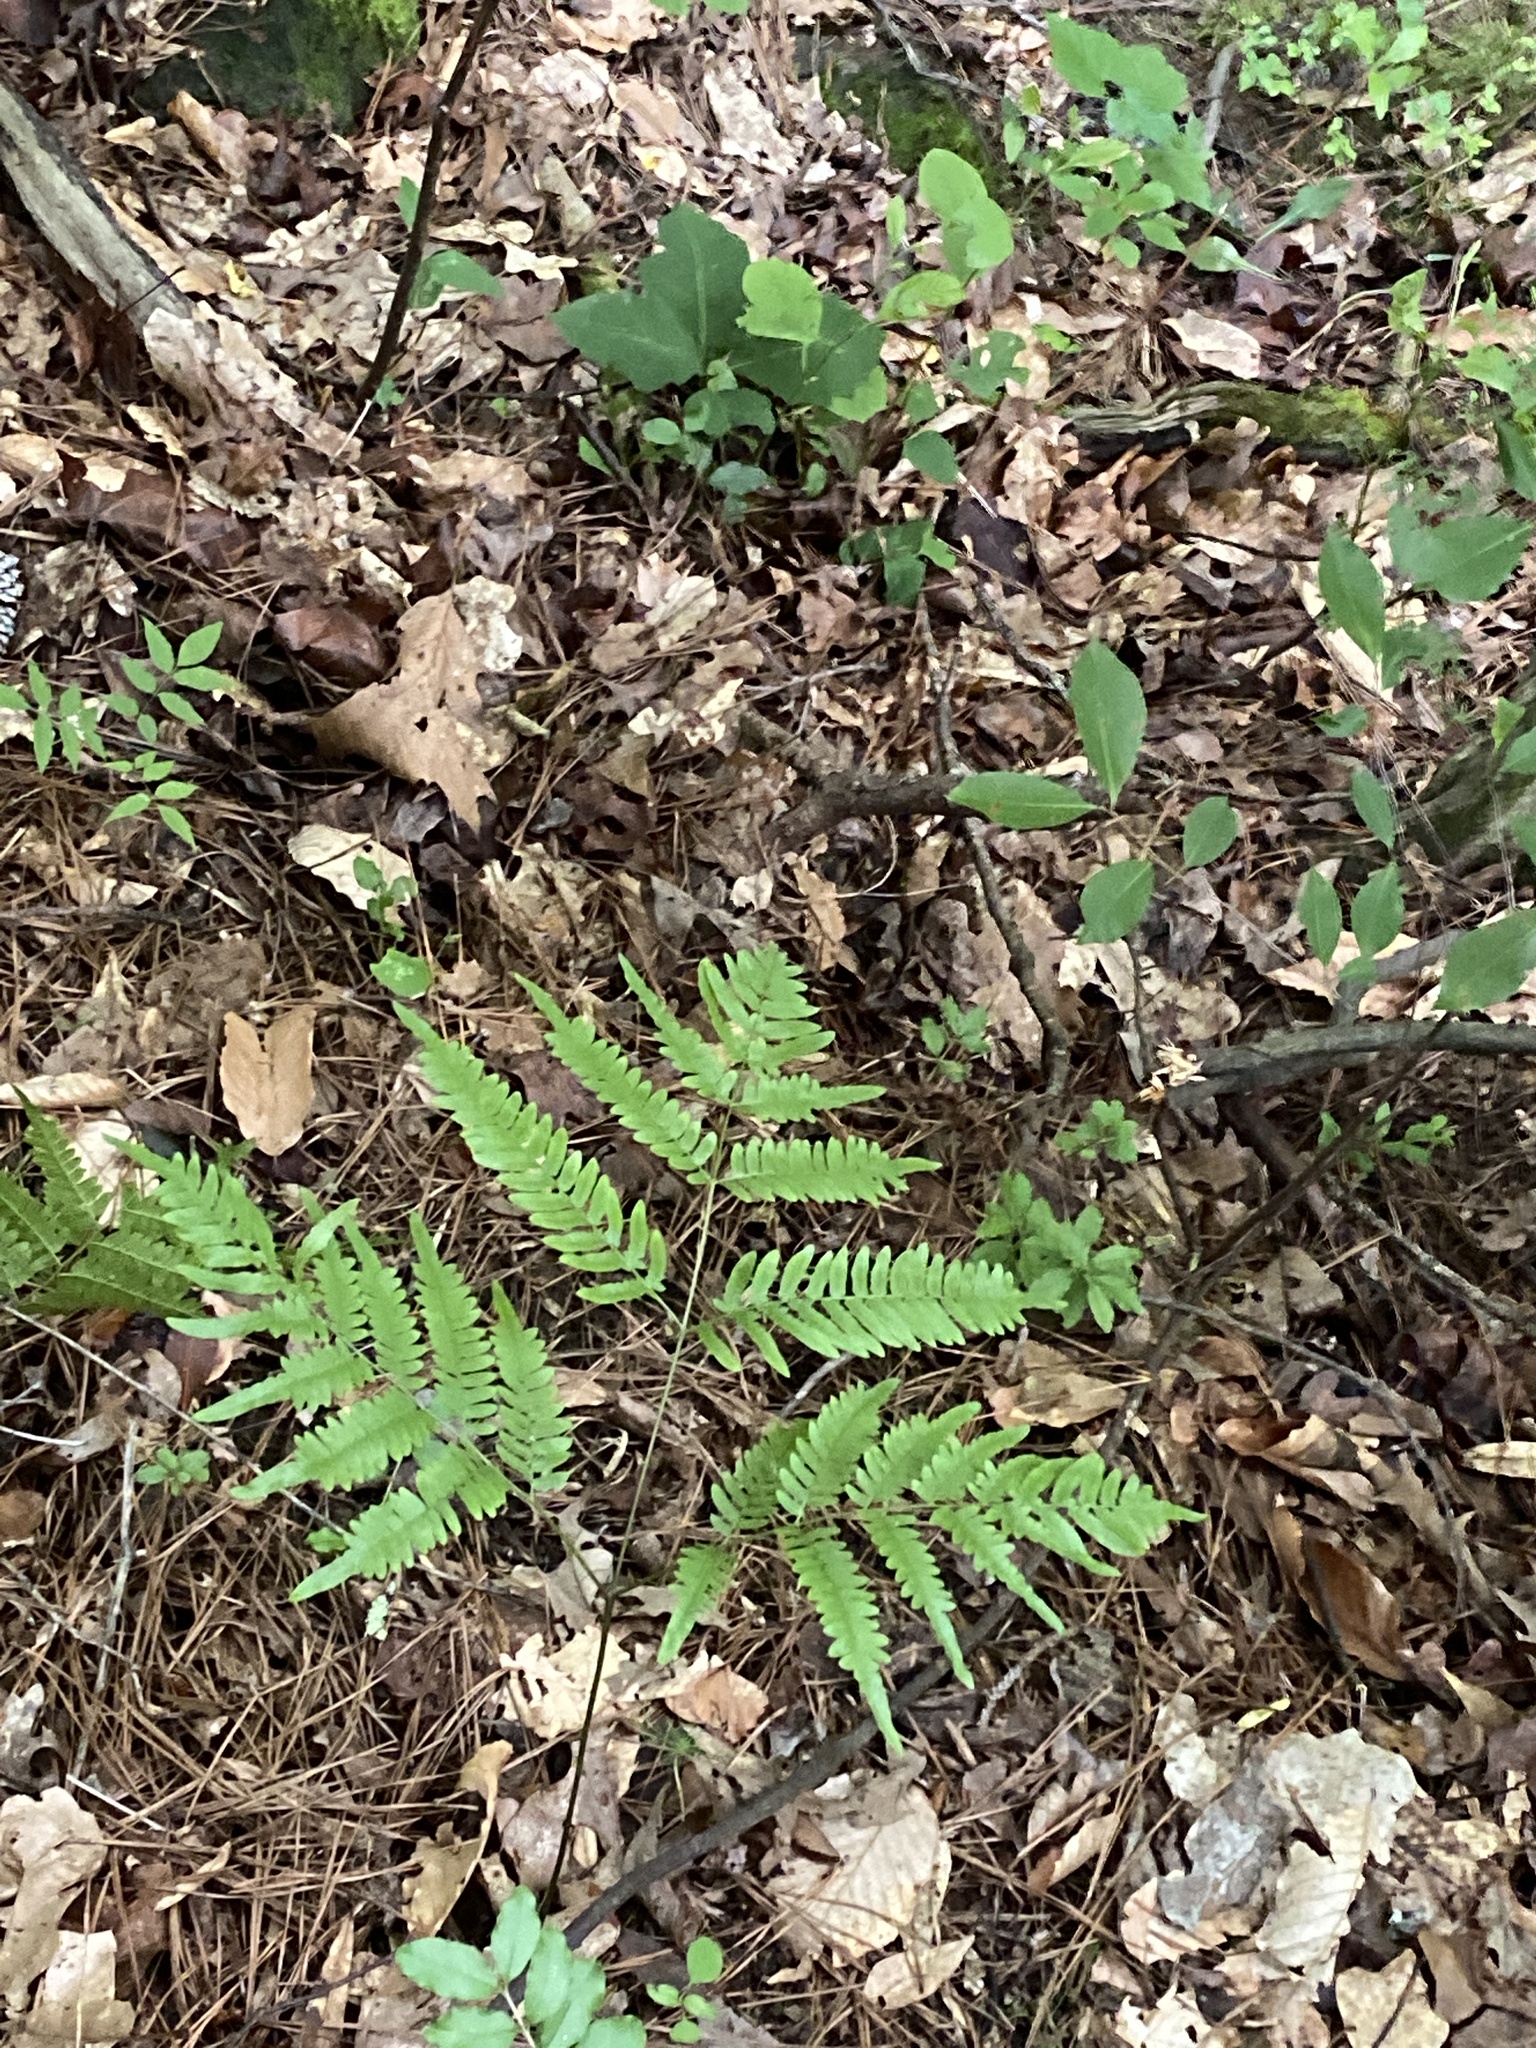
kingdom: Plantae
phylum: Tracheophyta
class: Polypodiopsida
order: Polypodiales
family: Dennstaedtiaceae
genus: Pteridium
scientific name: Pteridium aquilinum
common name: Bracken
